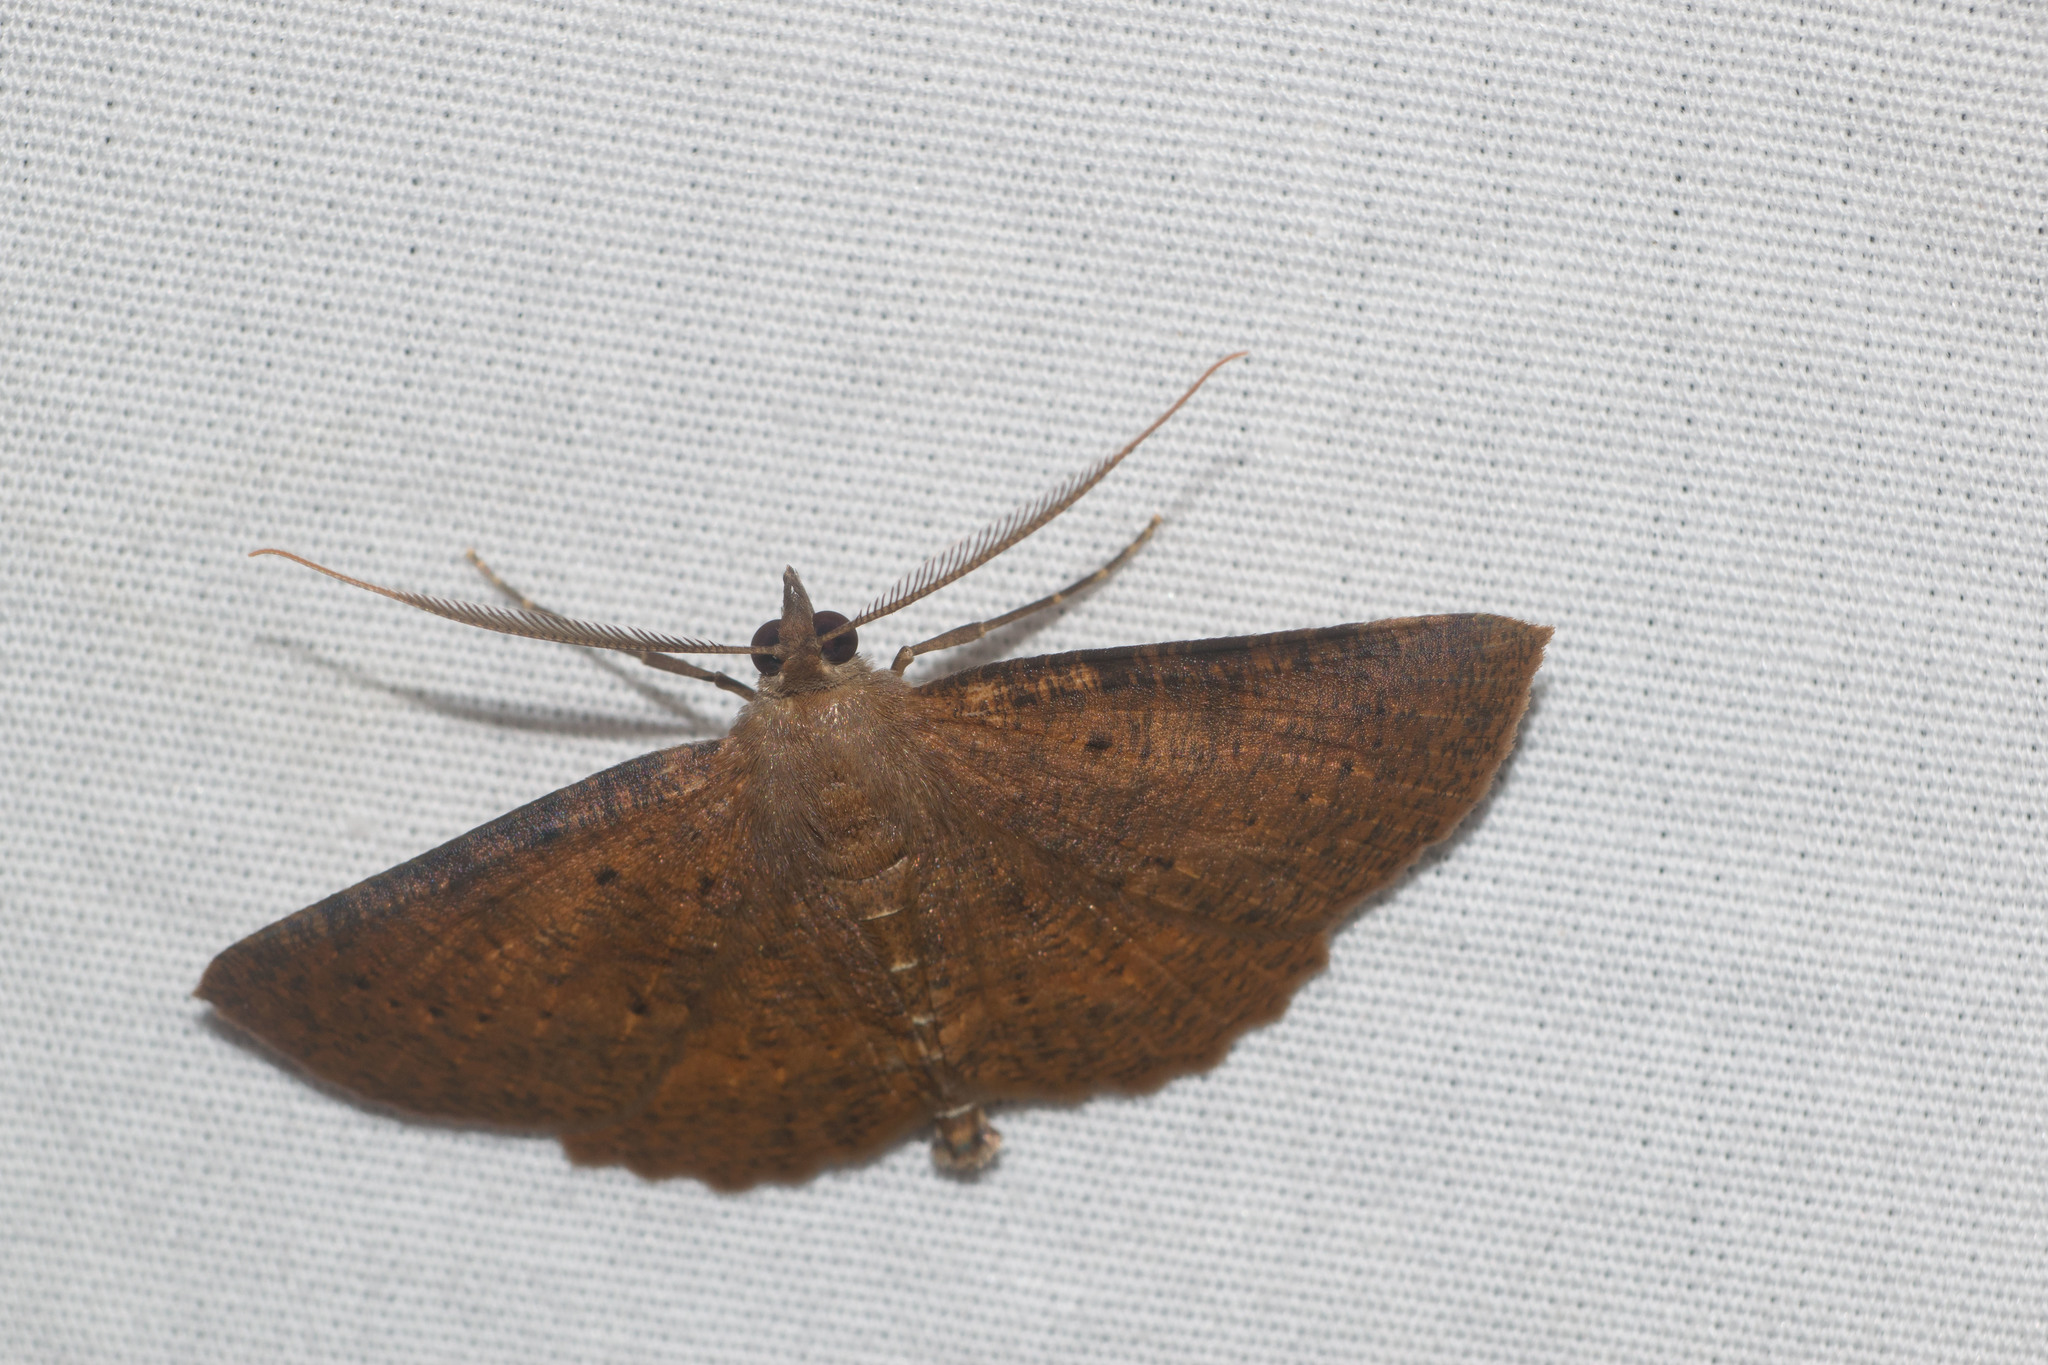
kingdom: Animalia
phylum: Arthropoda
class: Insecta
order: Lepidoptera
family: Geometridae
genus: Scotorythra
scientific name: Scotorythra corticea
